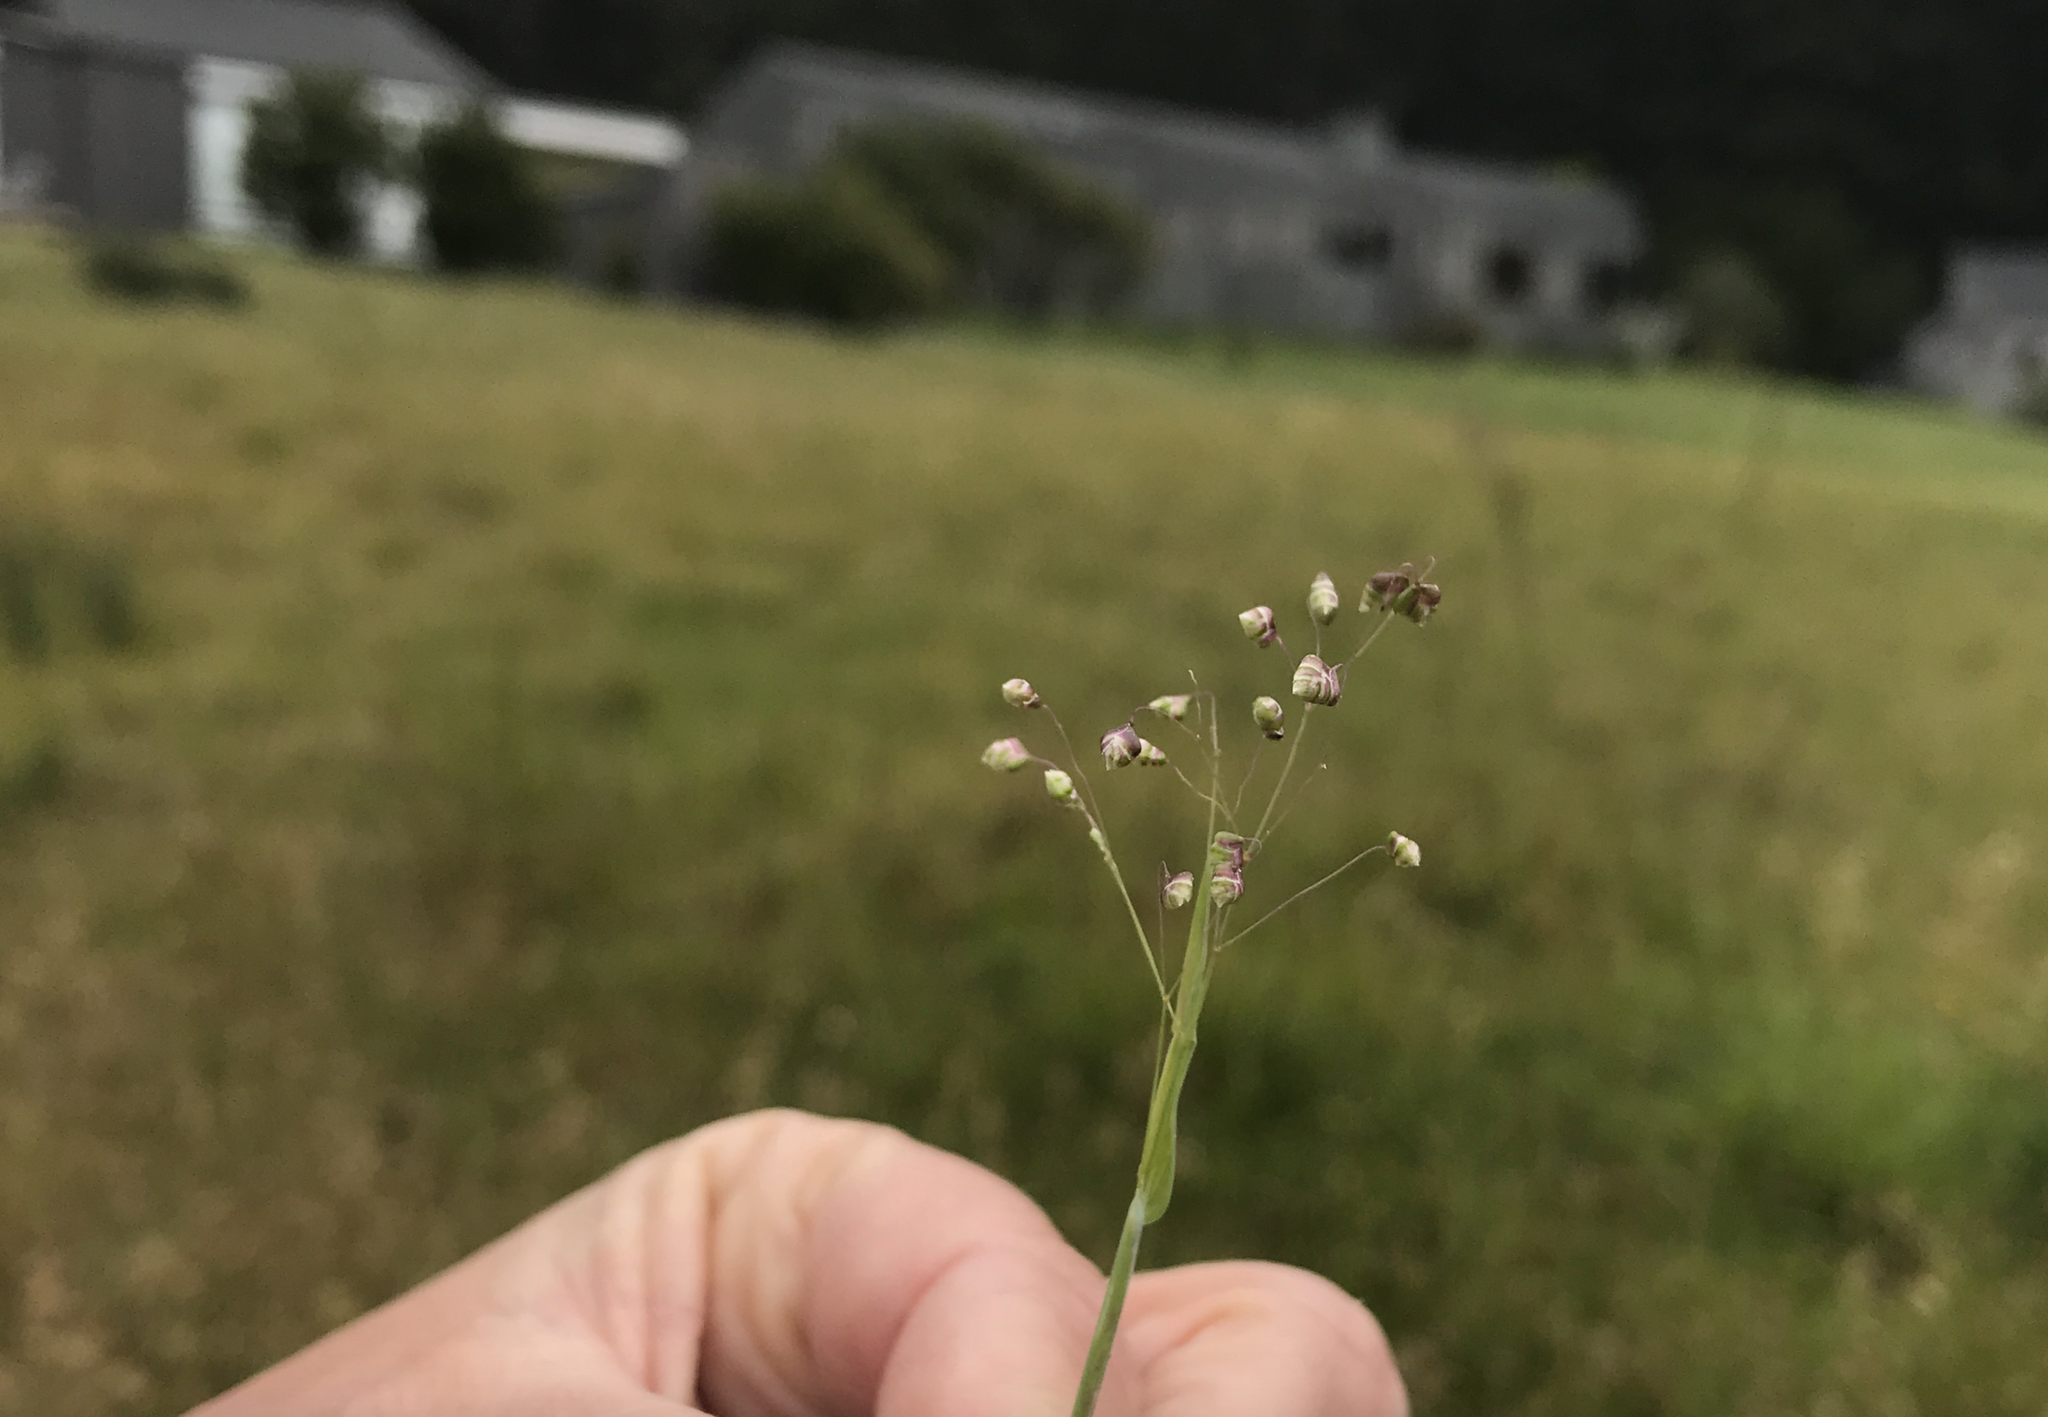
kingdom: Plantae
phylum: Tracheophyta
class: Liliopsida
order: Poales
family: Poaceae
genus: Briza
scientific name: Briza minor
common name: Lesser quaking-grass
